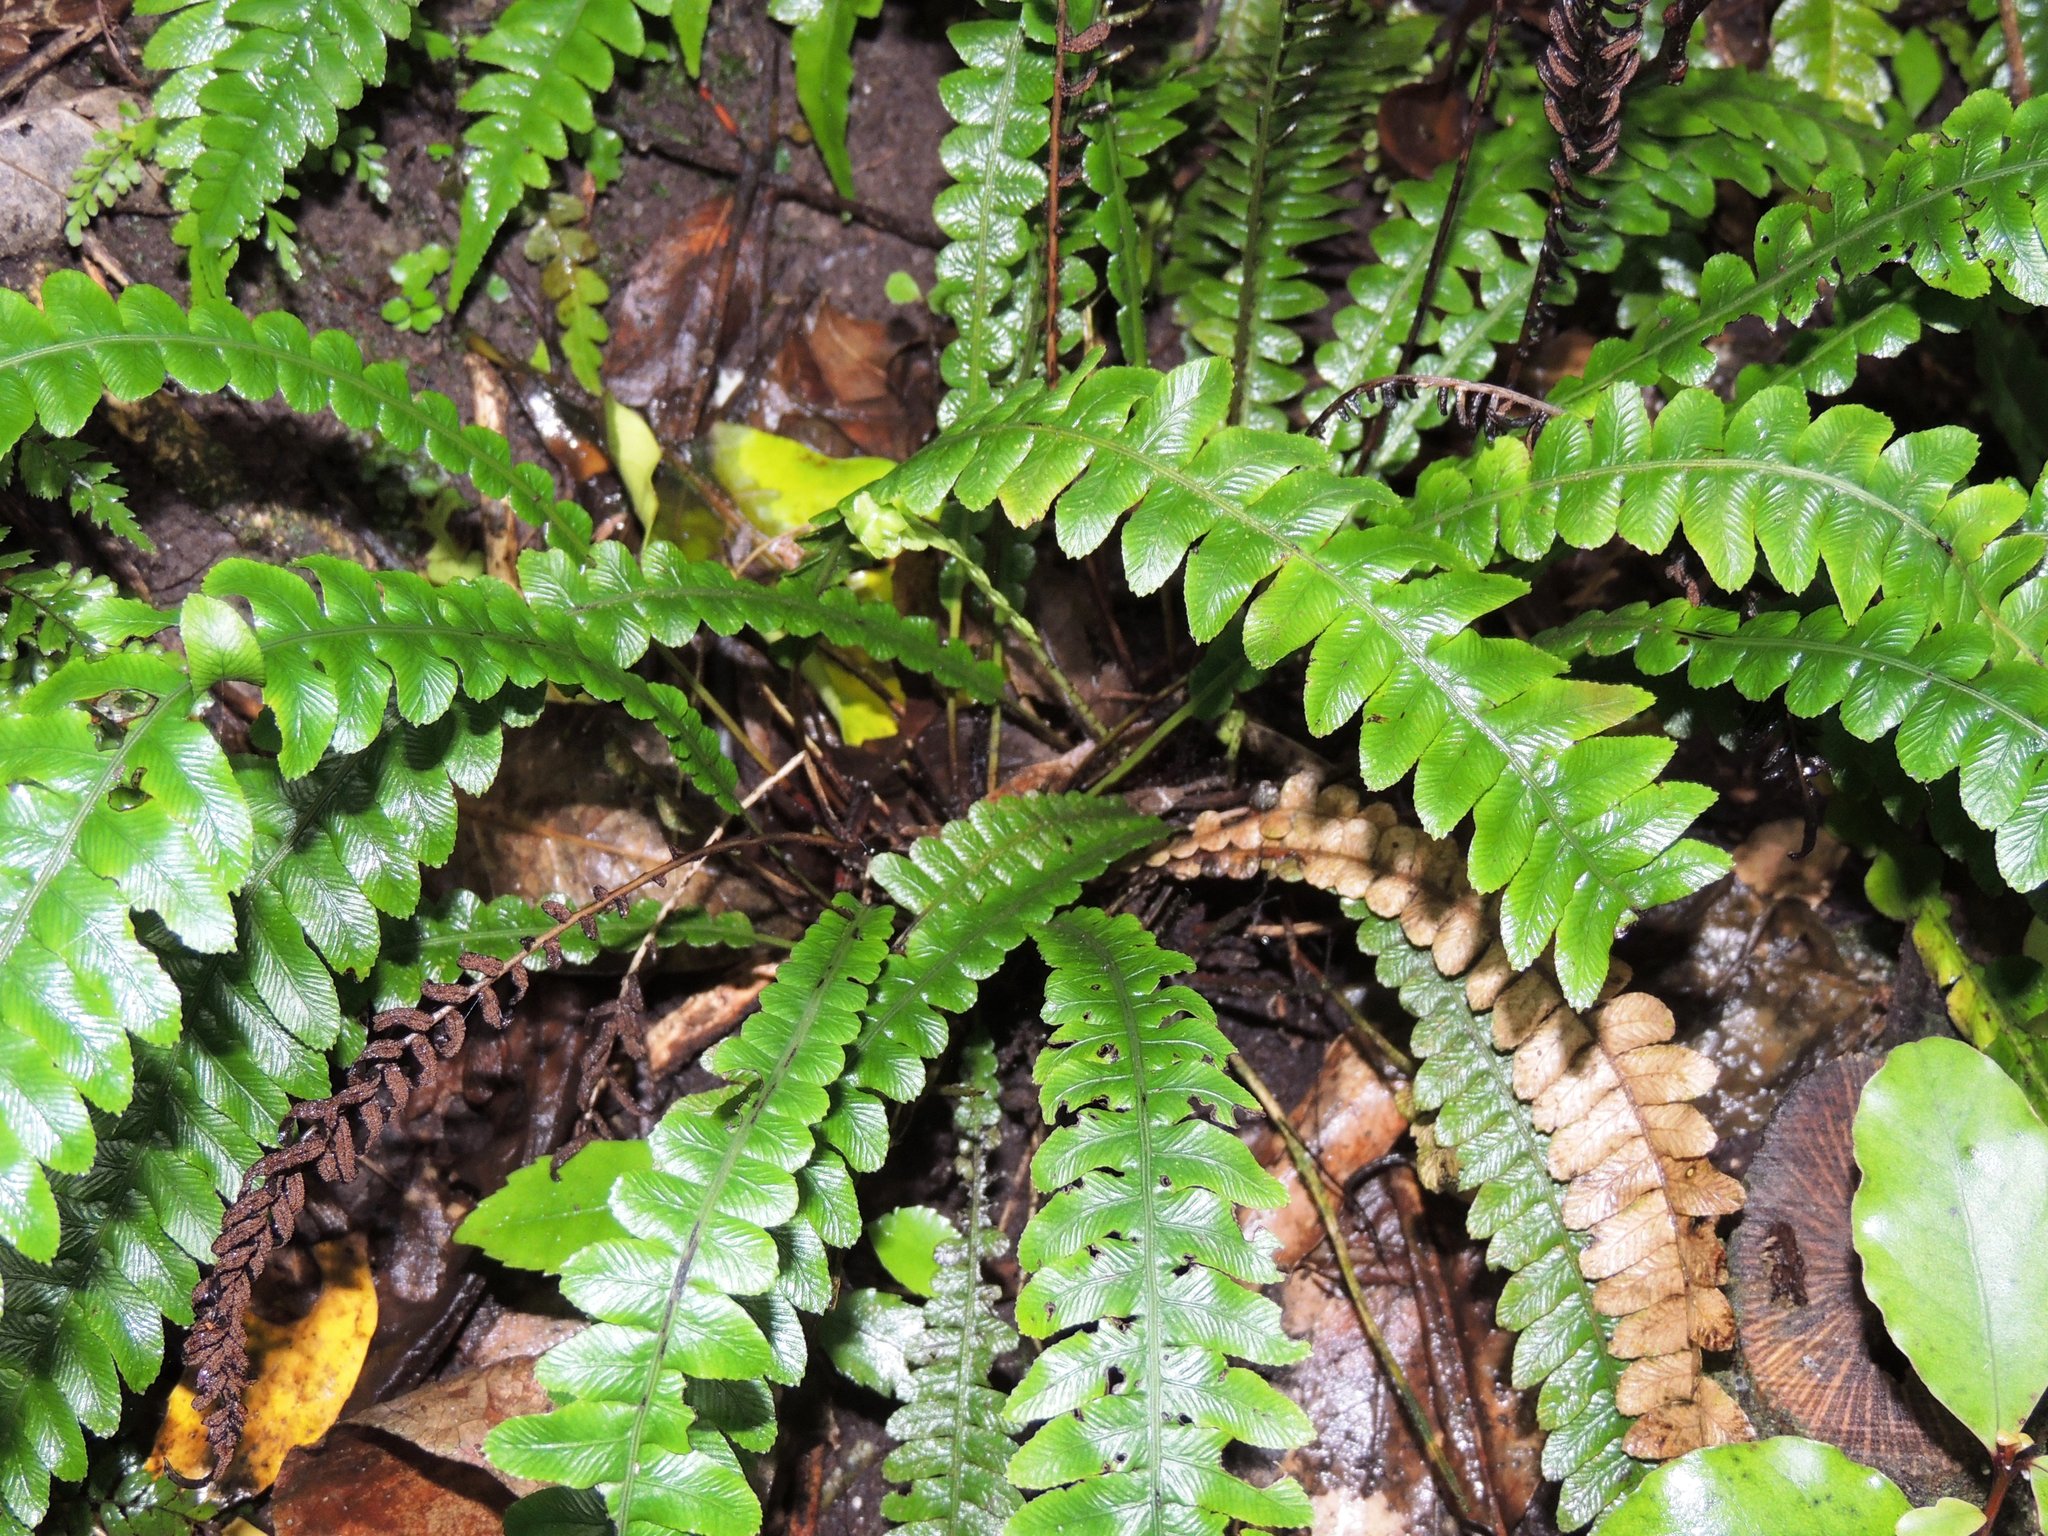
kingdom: Plantae
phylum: Tracheophyta
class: Polypodiopsida
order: Polypodiales
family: Blechnaceae
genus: Austroblechnum
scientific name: Austroblechnum lanceolatum
